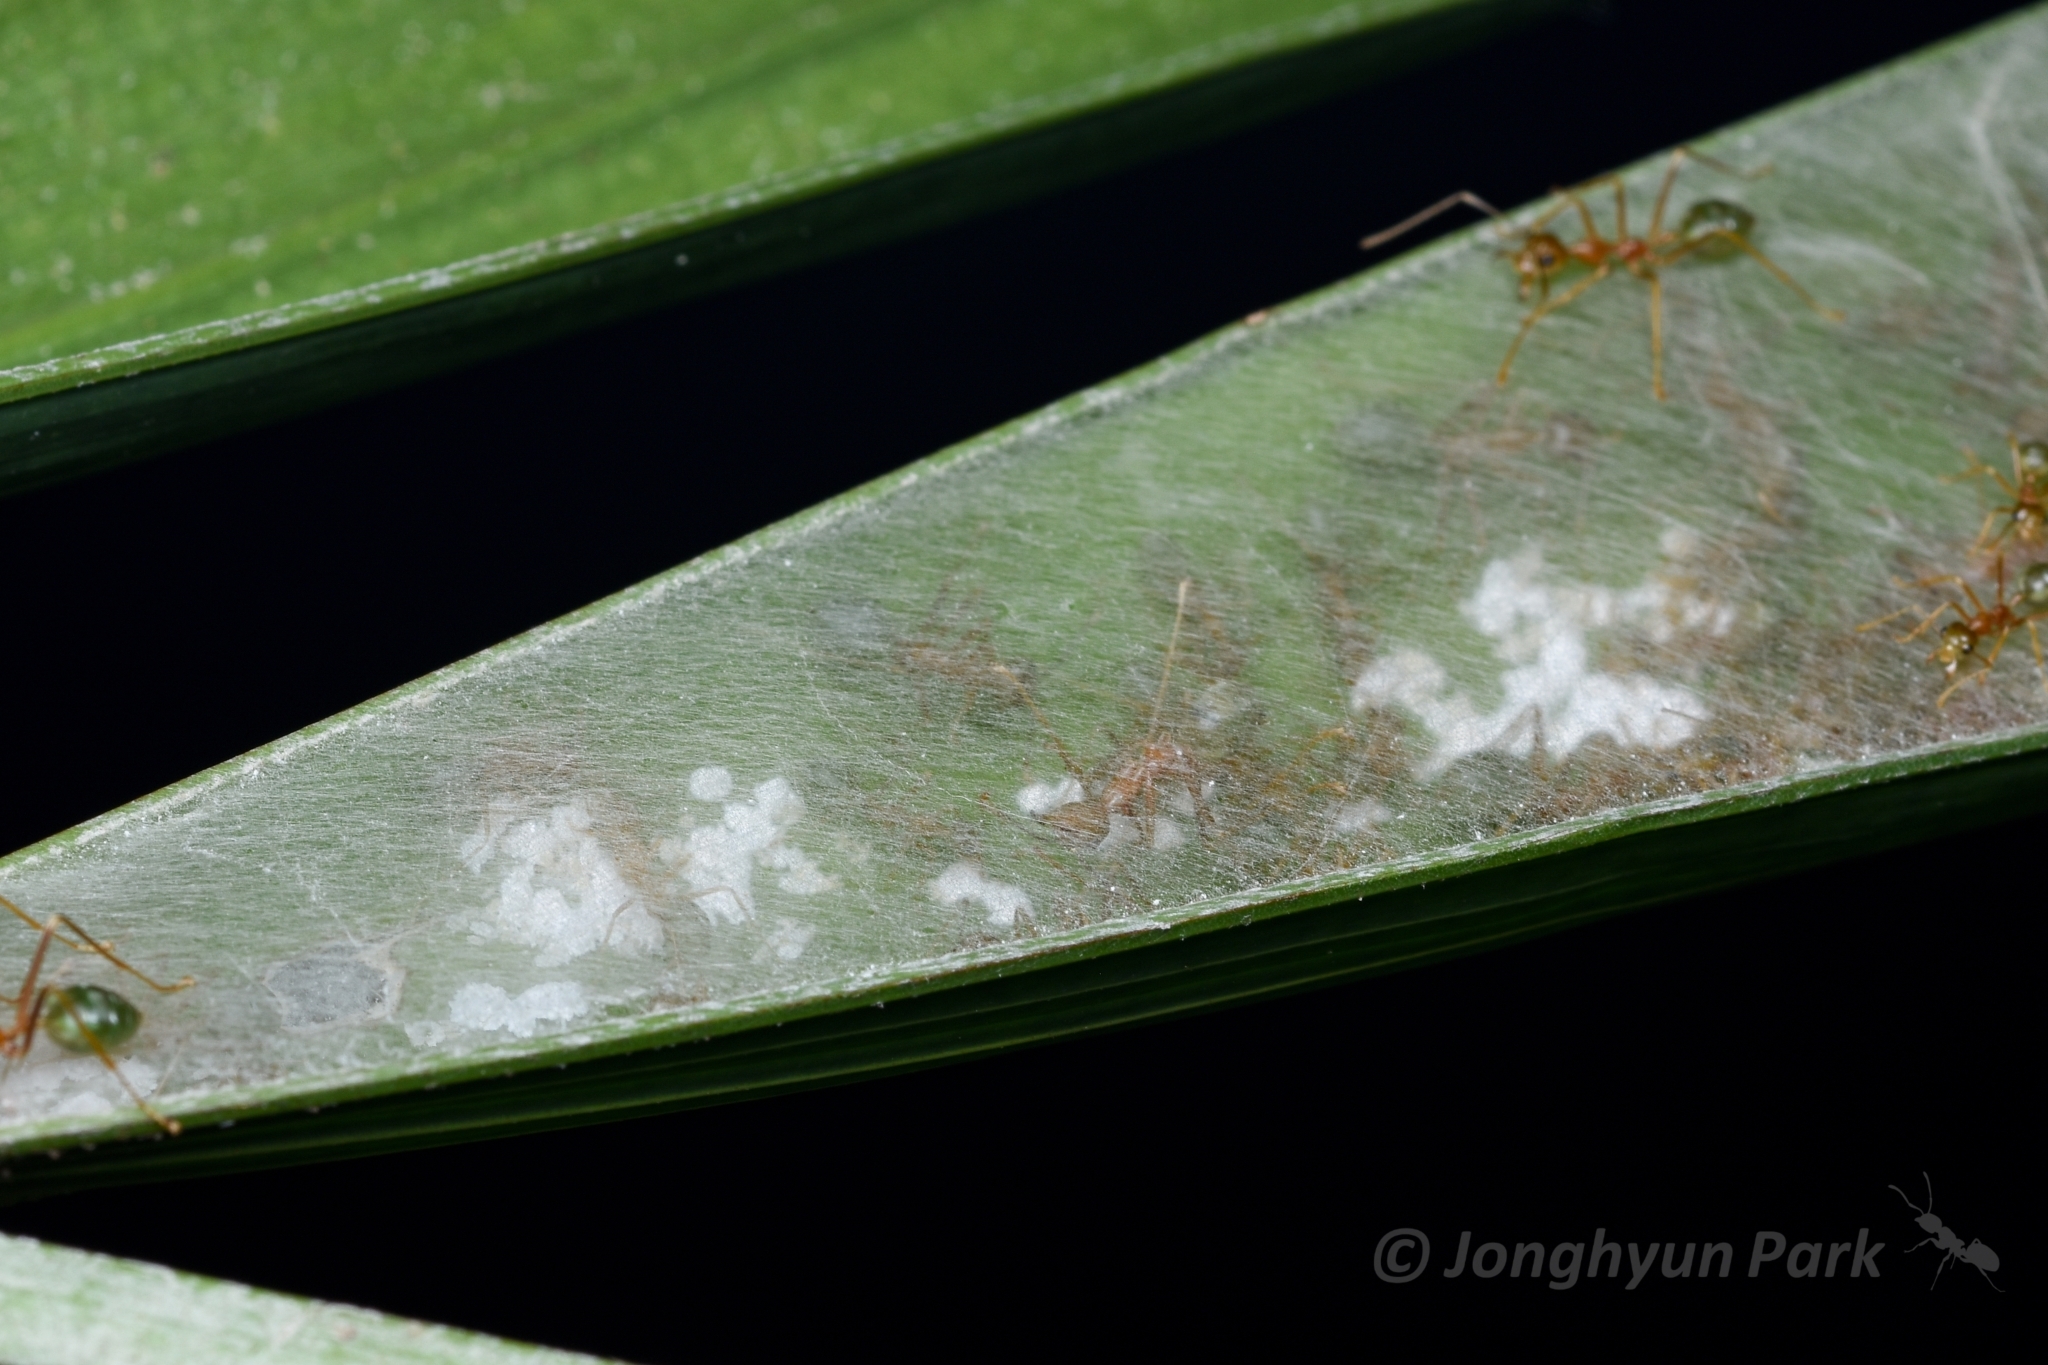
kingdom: Animalia
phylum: Arthropoda
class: Insecta
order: Hymenoptera
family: Formicidae
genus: Oecophylla
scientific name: Oecophylla smaragdina
